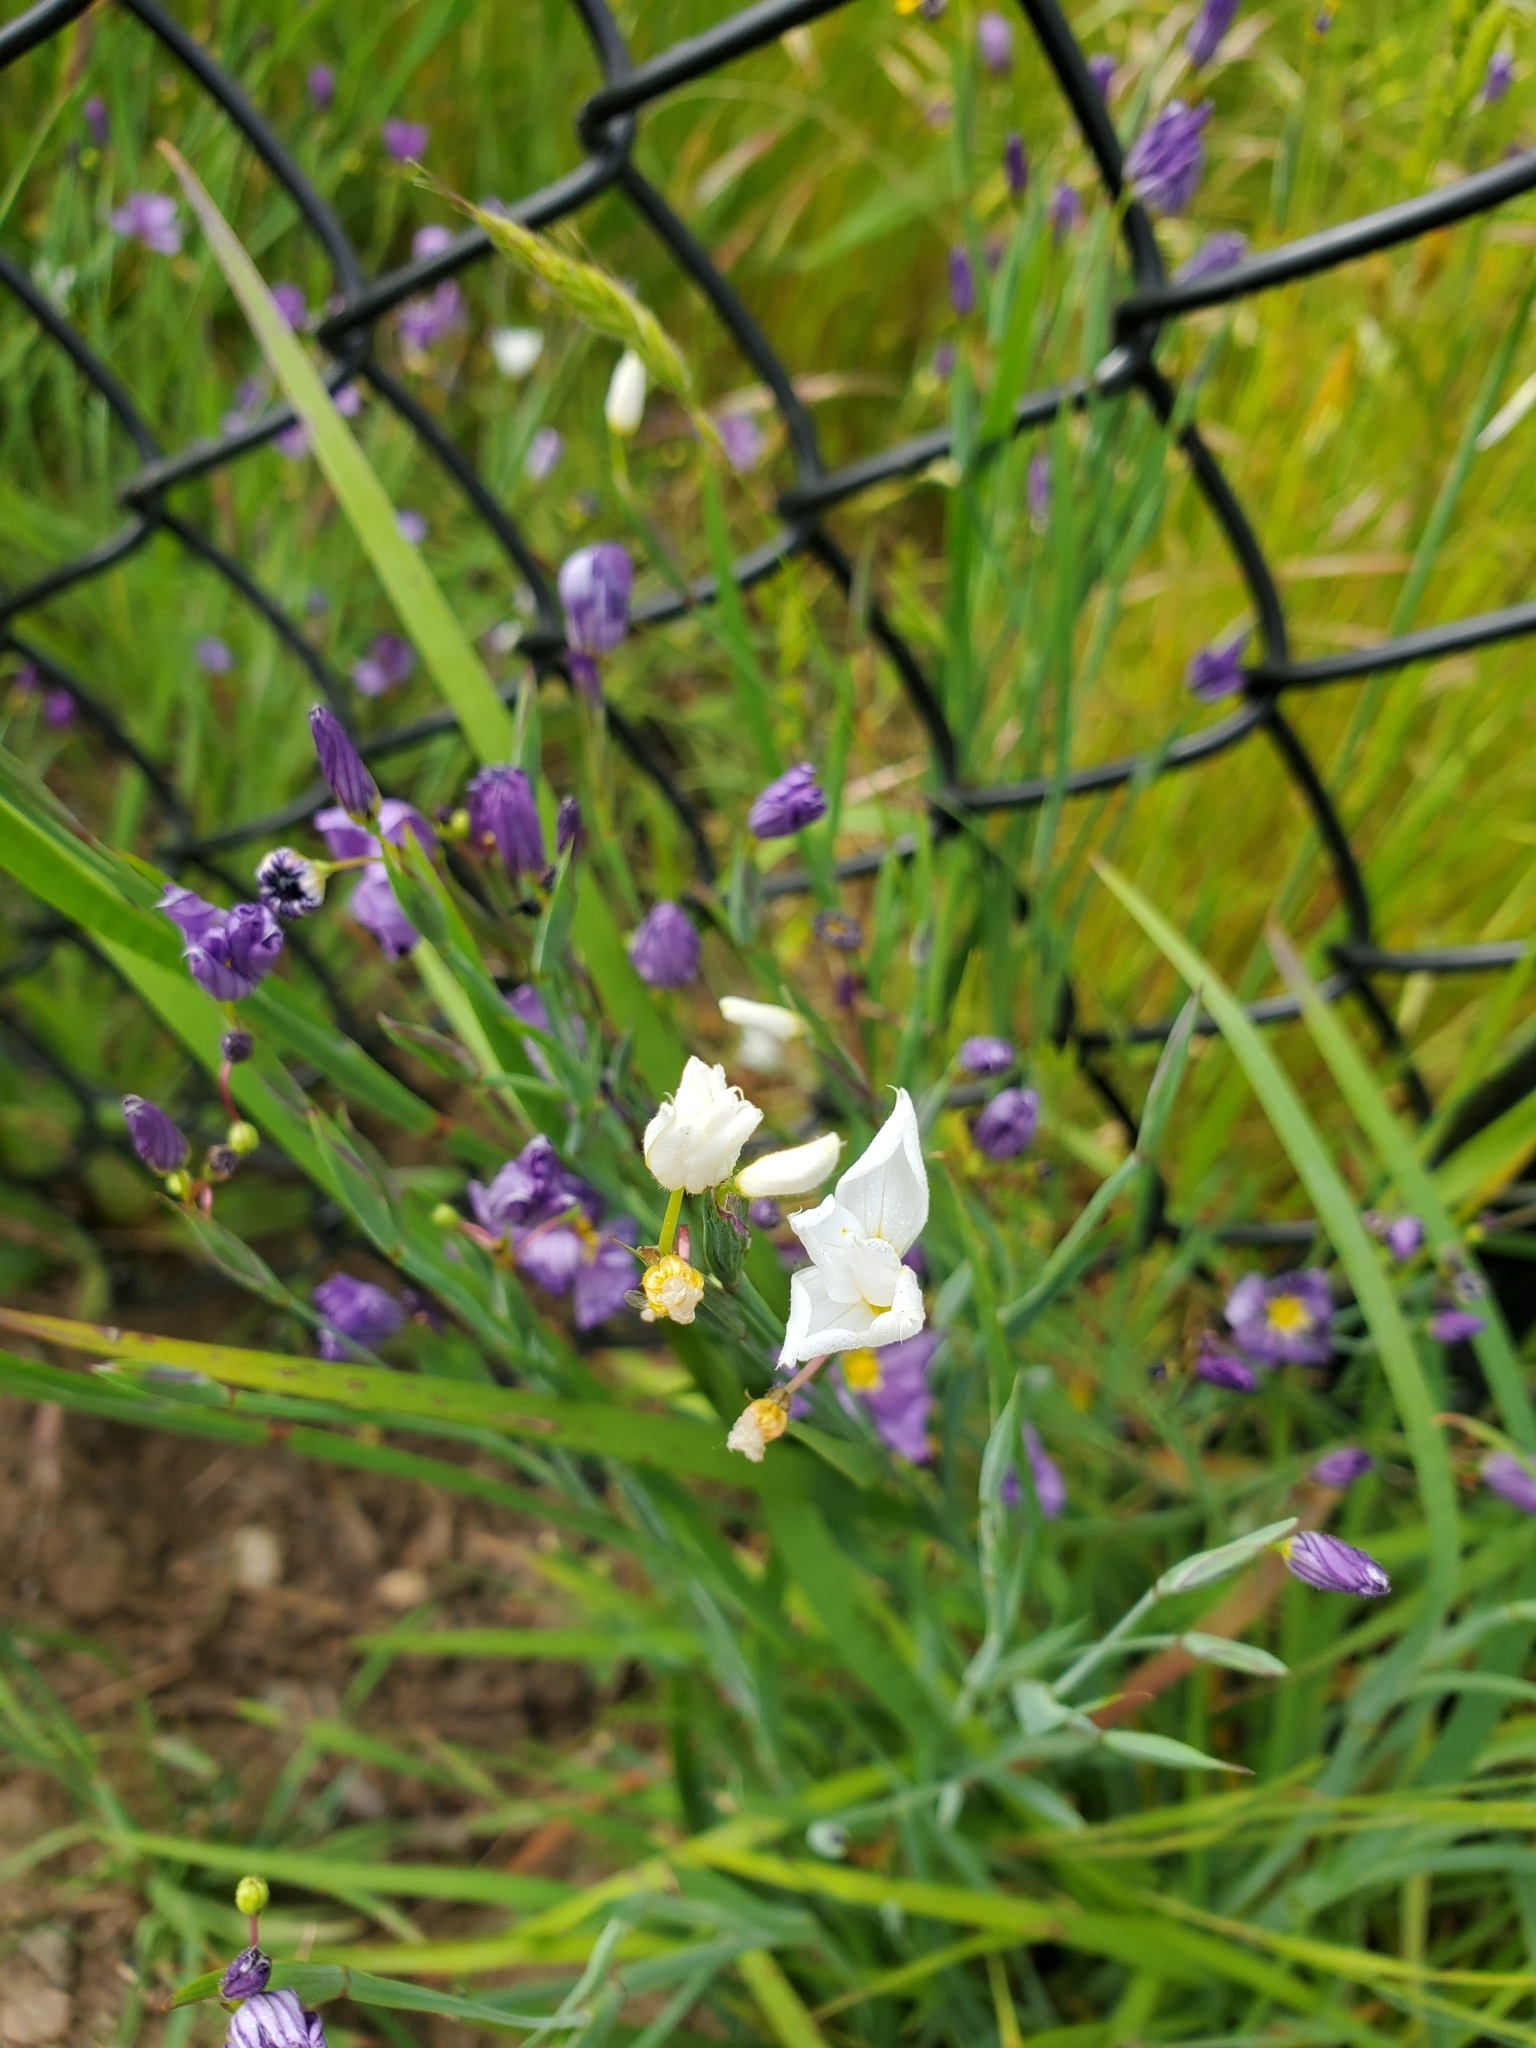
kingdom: Plantae
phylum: Tracheophyta
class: Liliopsida
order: Asparagales
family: Iridaceae
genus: Sisyrinchium
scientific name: Sisyrinchium bellum
